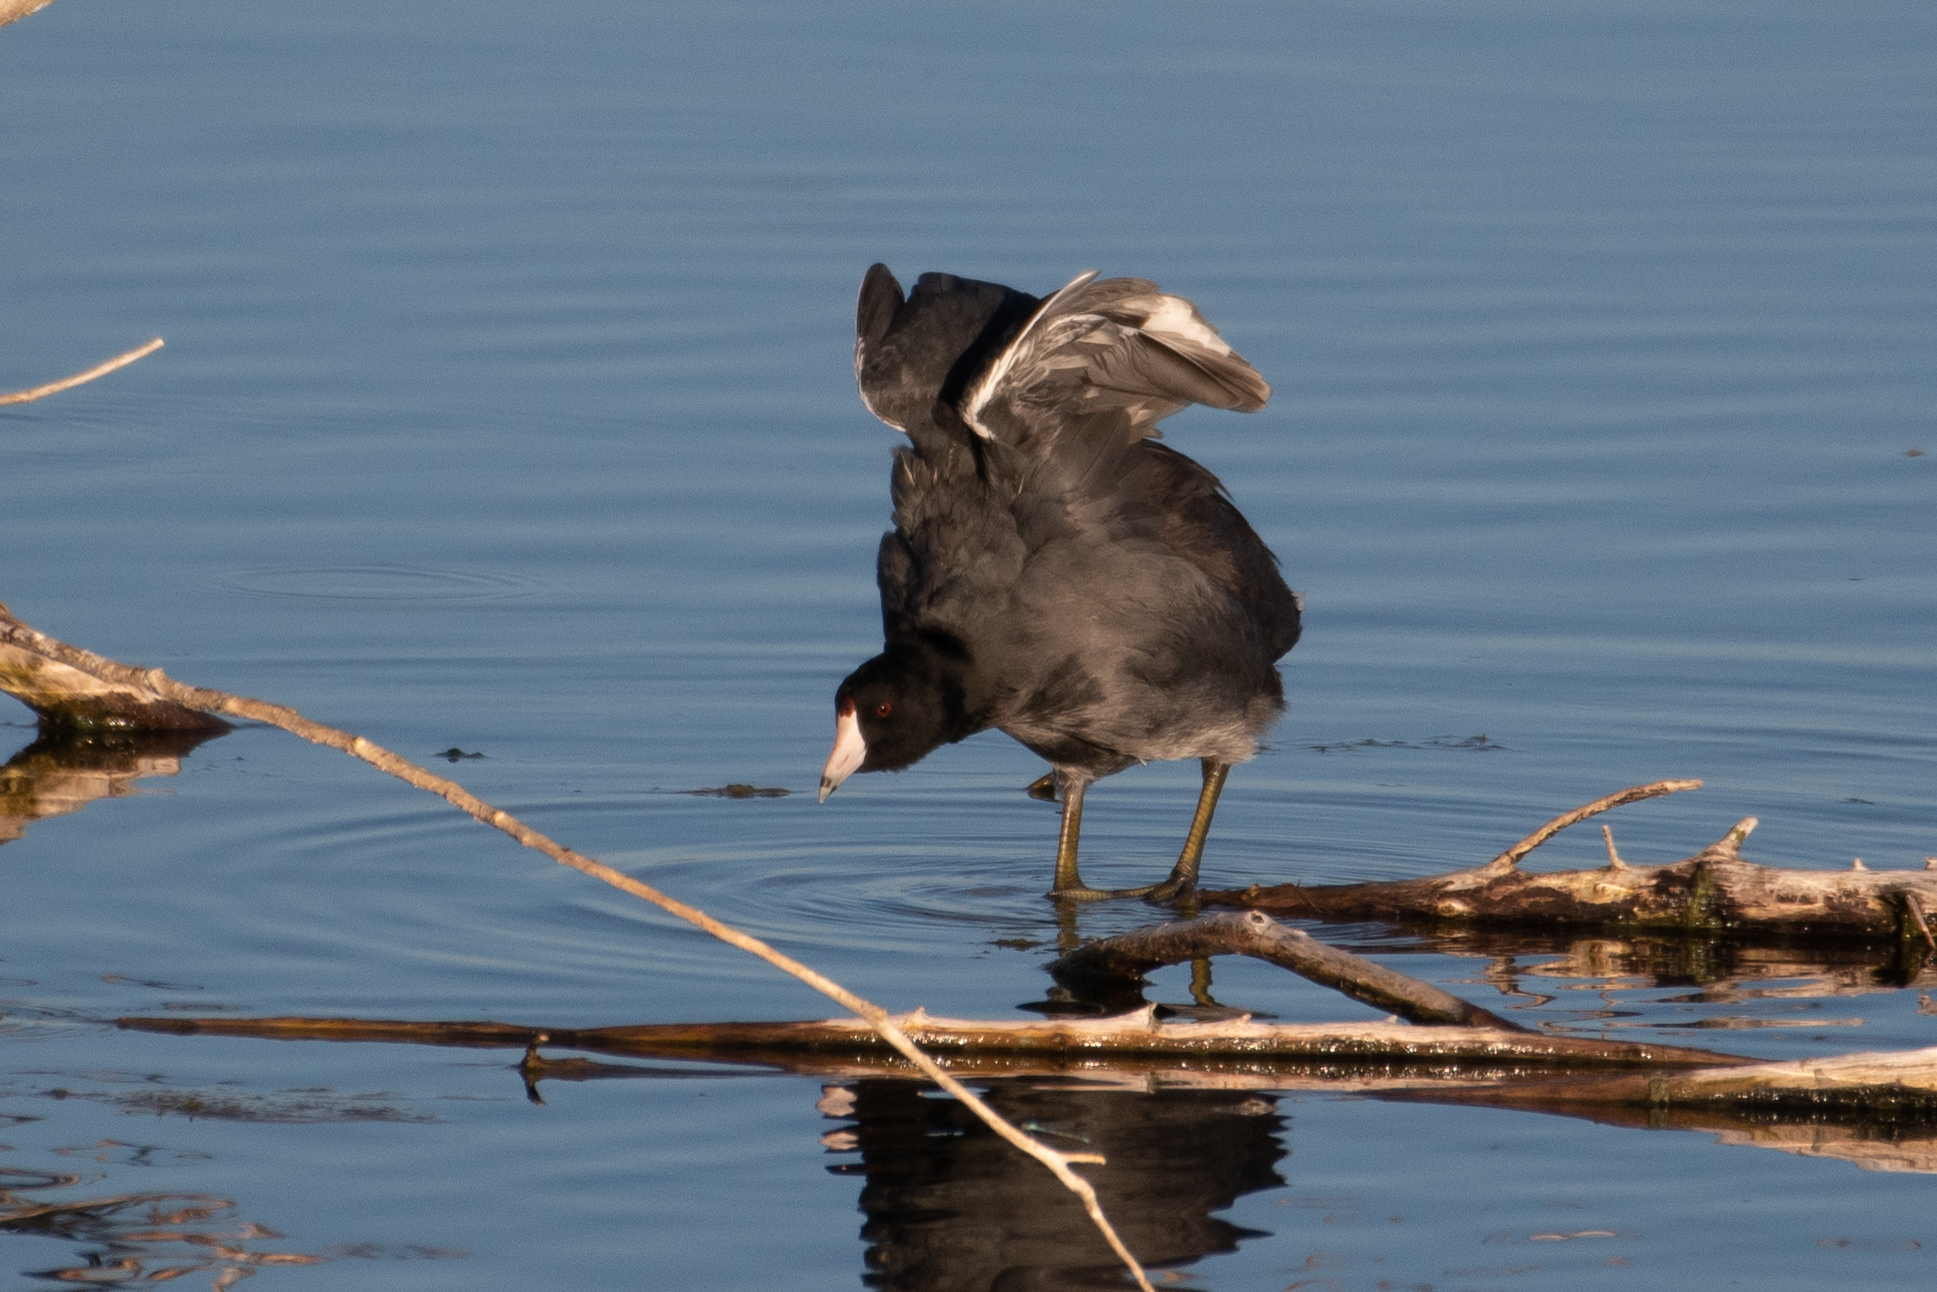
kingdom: Animalia
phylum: Chordata
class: Aves
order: Gruiformes
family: Rallidae
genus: Fulica
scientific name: Fulica americana
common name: American coot
